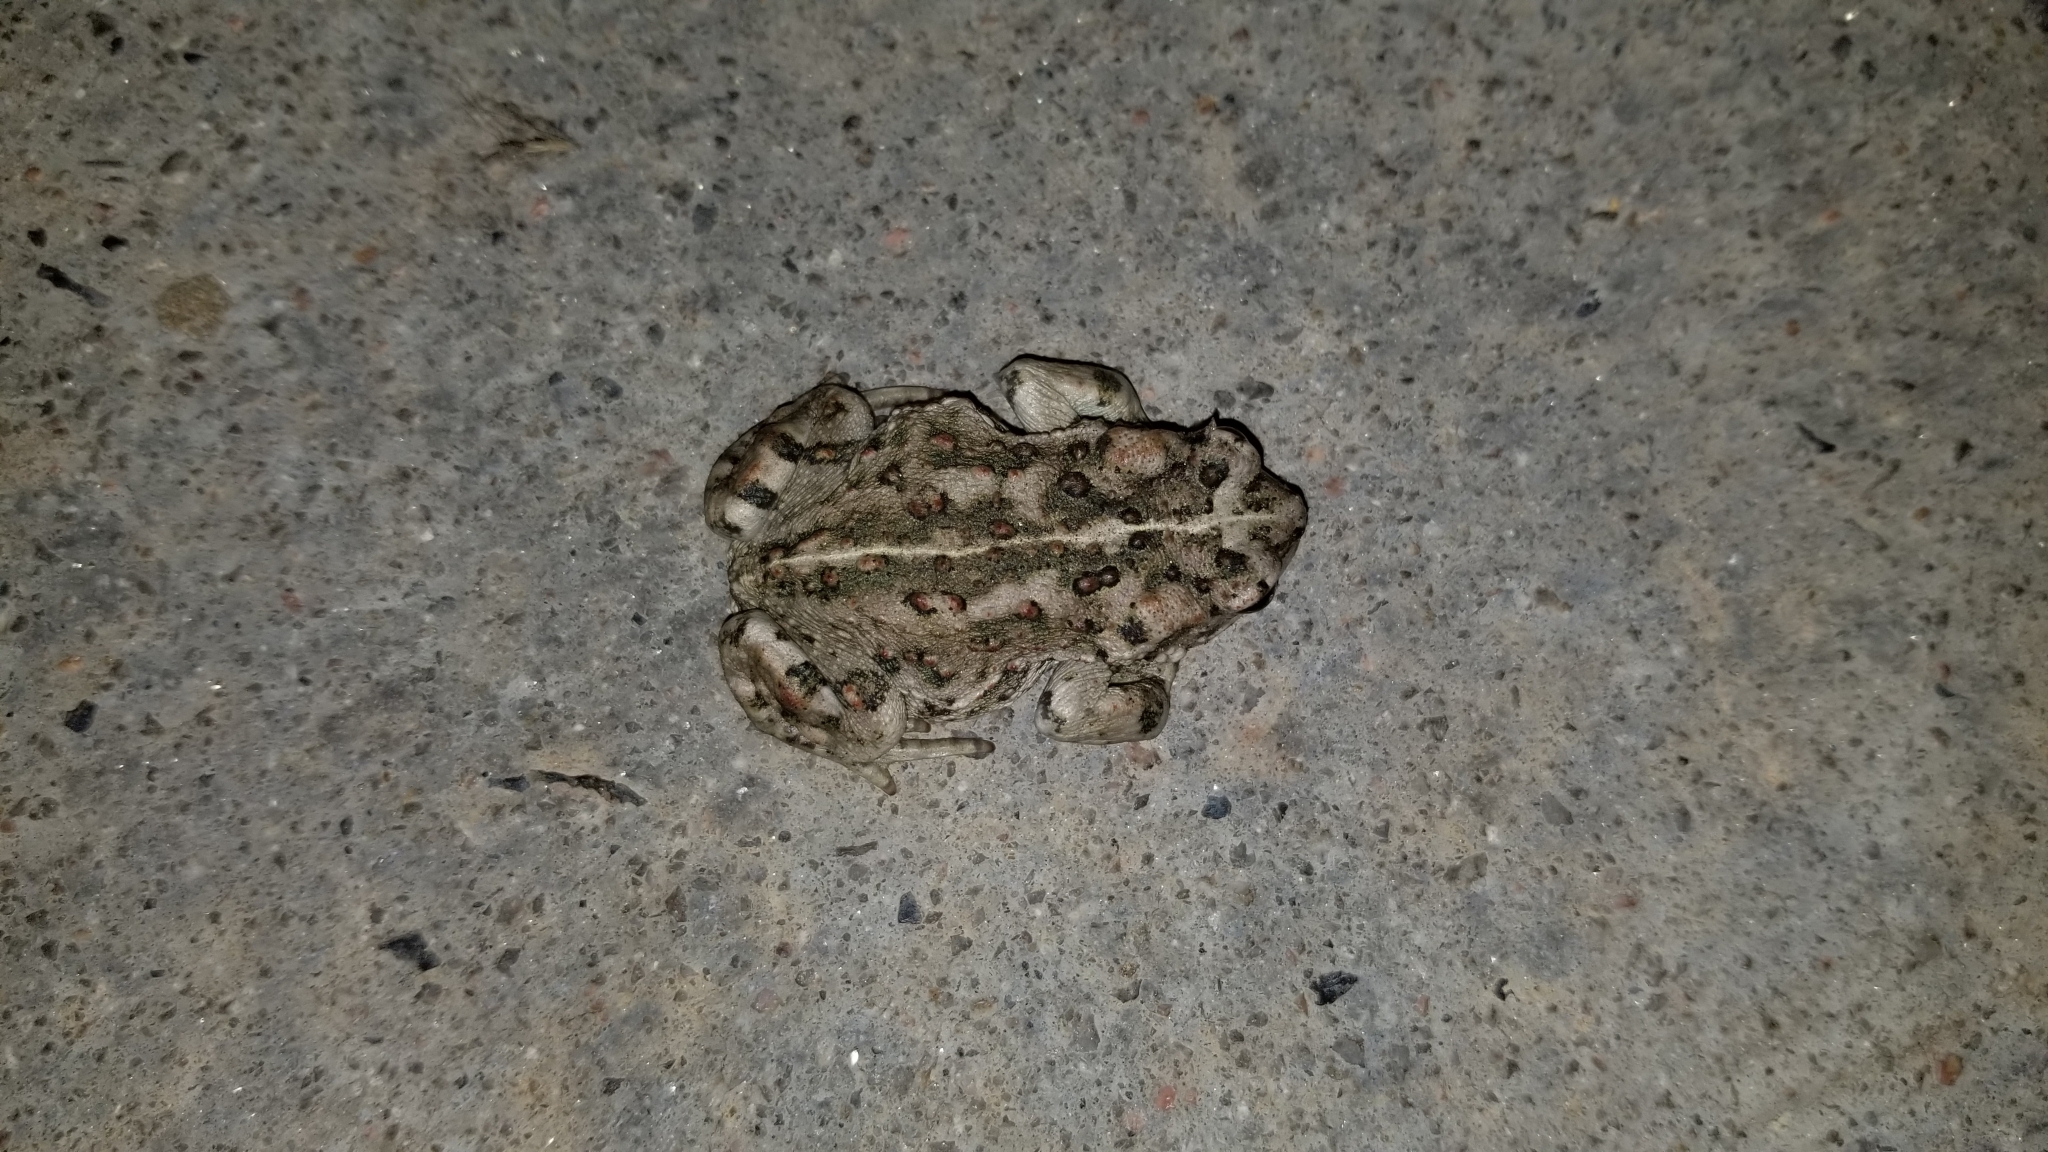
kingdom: Animalia
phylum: Chordata
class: Amphibia
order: Anura
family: Bufonidae
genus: Anaxyrus
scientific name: Anaxyrus boreas
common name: Western toad
